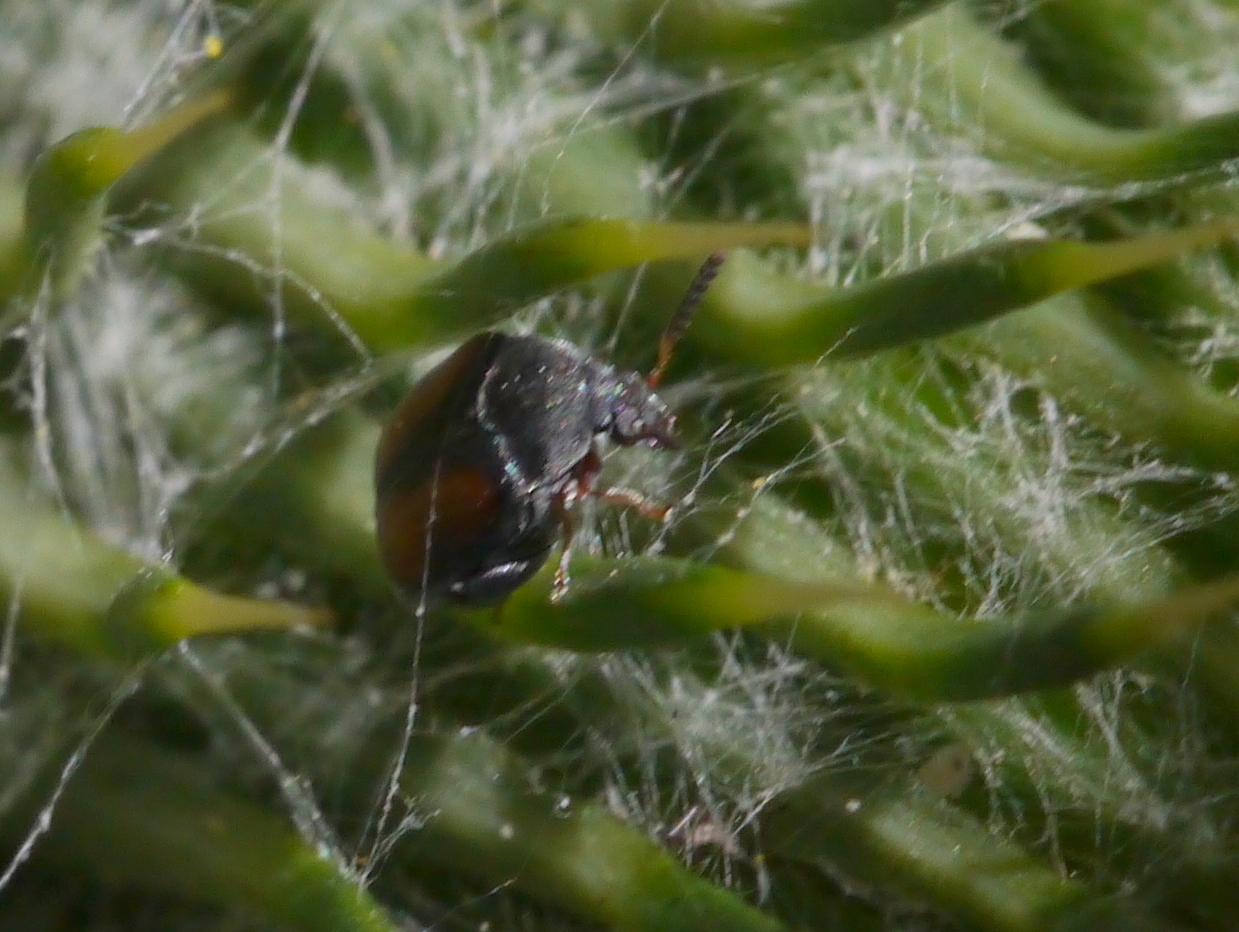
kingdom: Animalia
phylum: Arthropoda
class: Insecta
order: Coleoptera
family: Chrysomelidae
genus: Stator
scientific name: Stator limbatus
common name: Leaf beetle
